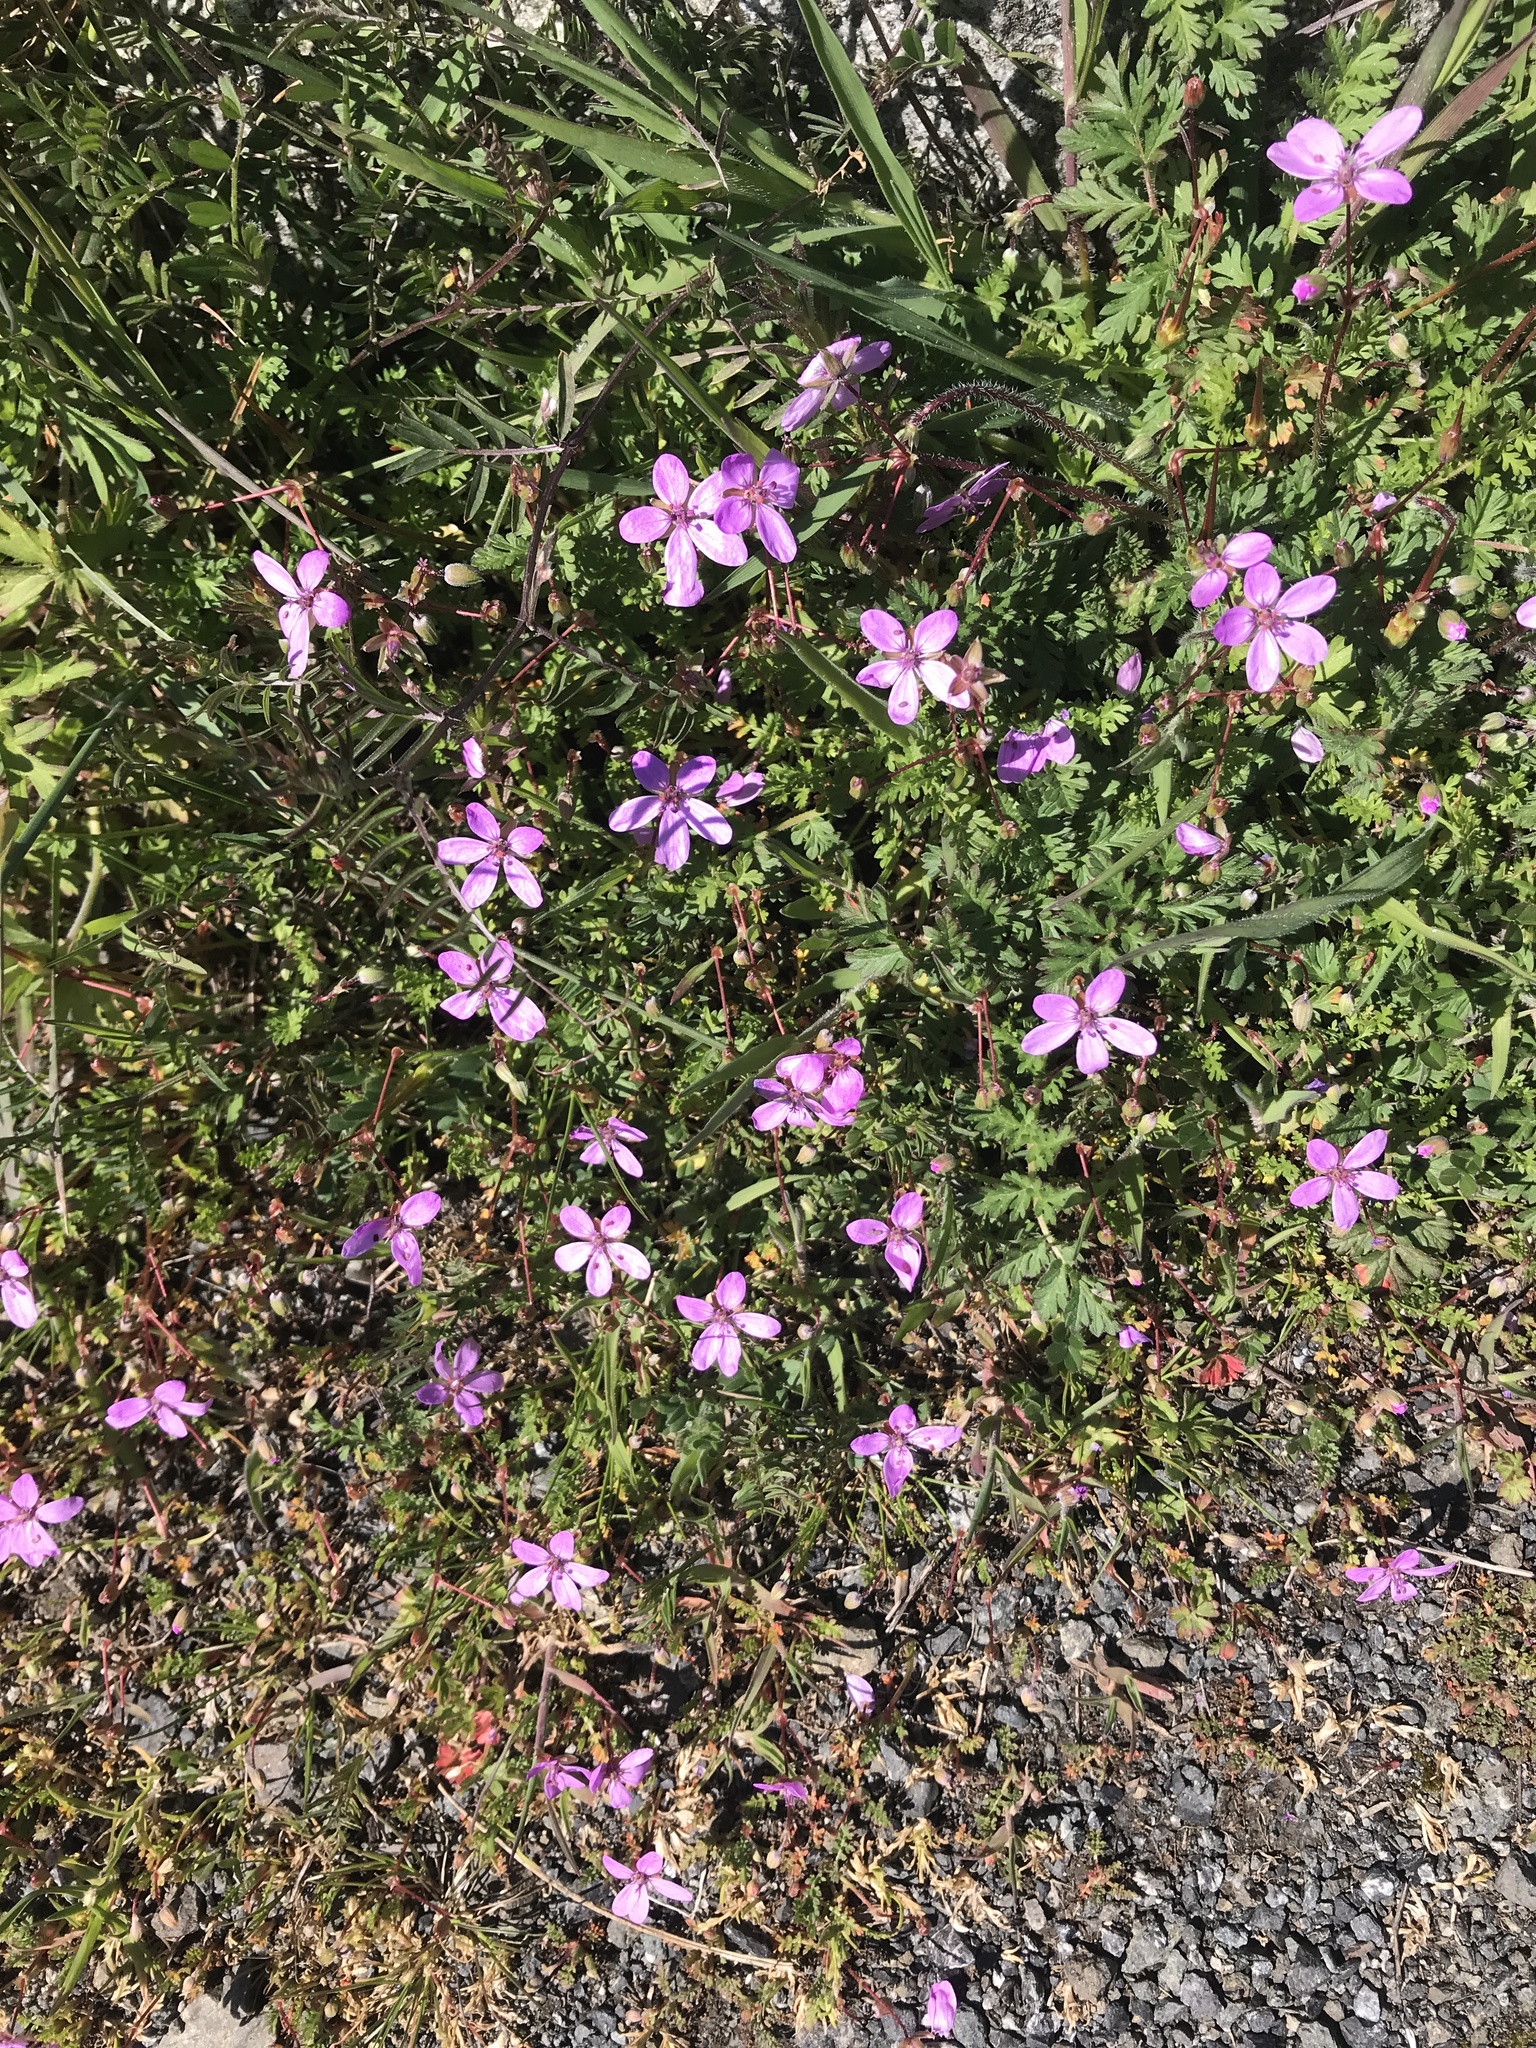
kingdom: Plantae
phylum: Tracheophyta
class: Magnoliopsida
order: Geraniales
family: Geraniaceae
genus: Erodium
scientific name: Erodium cicutarium
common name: Common stork's-bill
